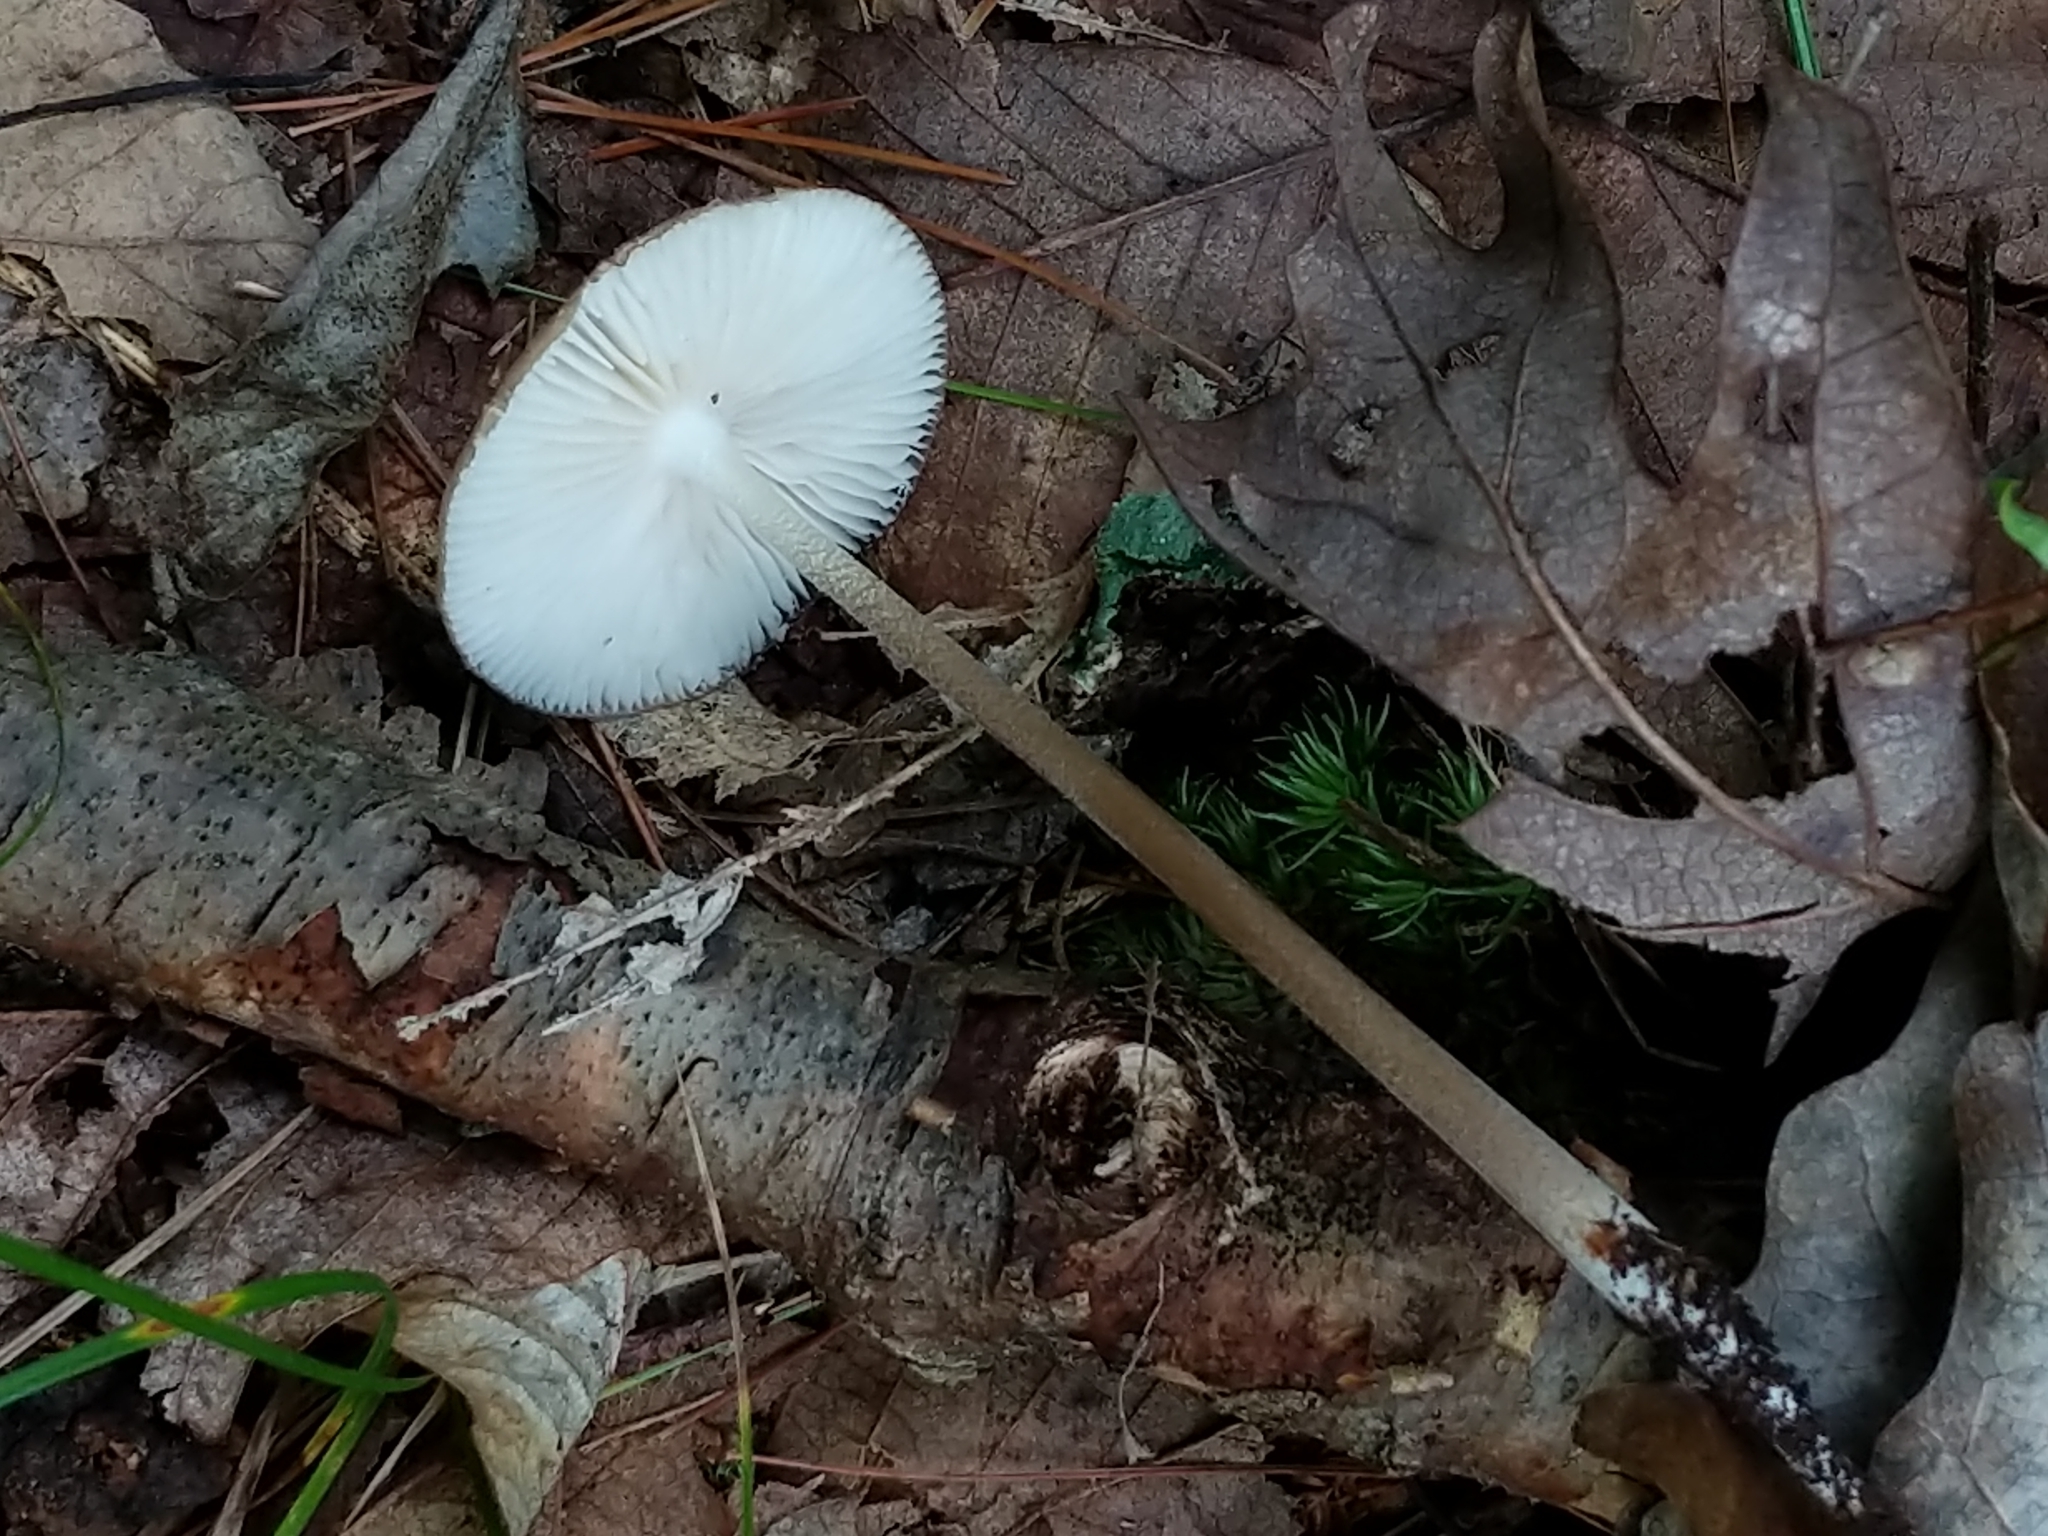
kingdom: Fungi
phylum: Basidiomycota
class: Agaricomycetes
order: Agaricales
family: Physalacriaceae
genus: Hymenopellis
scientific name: Hymenopellis furfuracea
